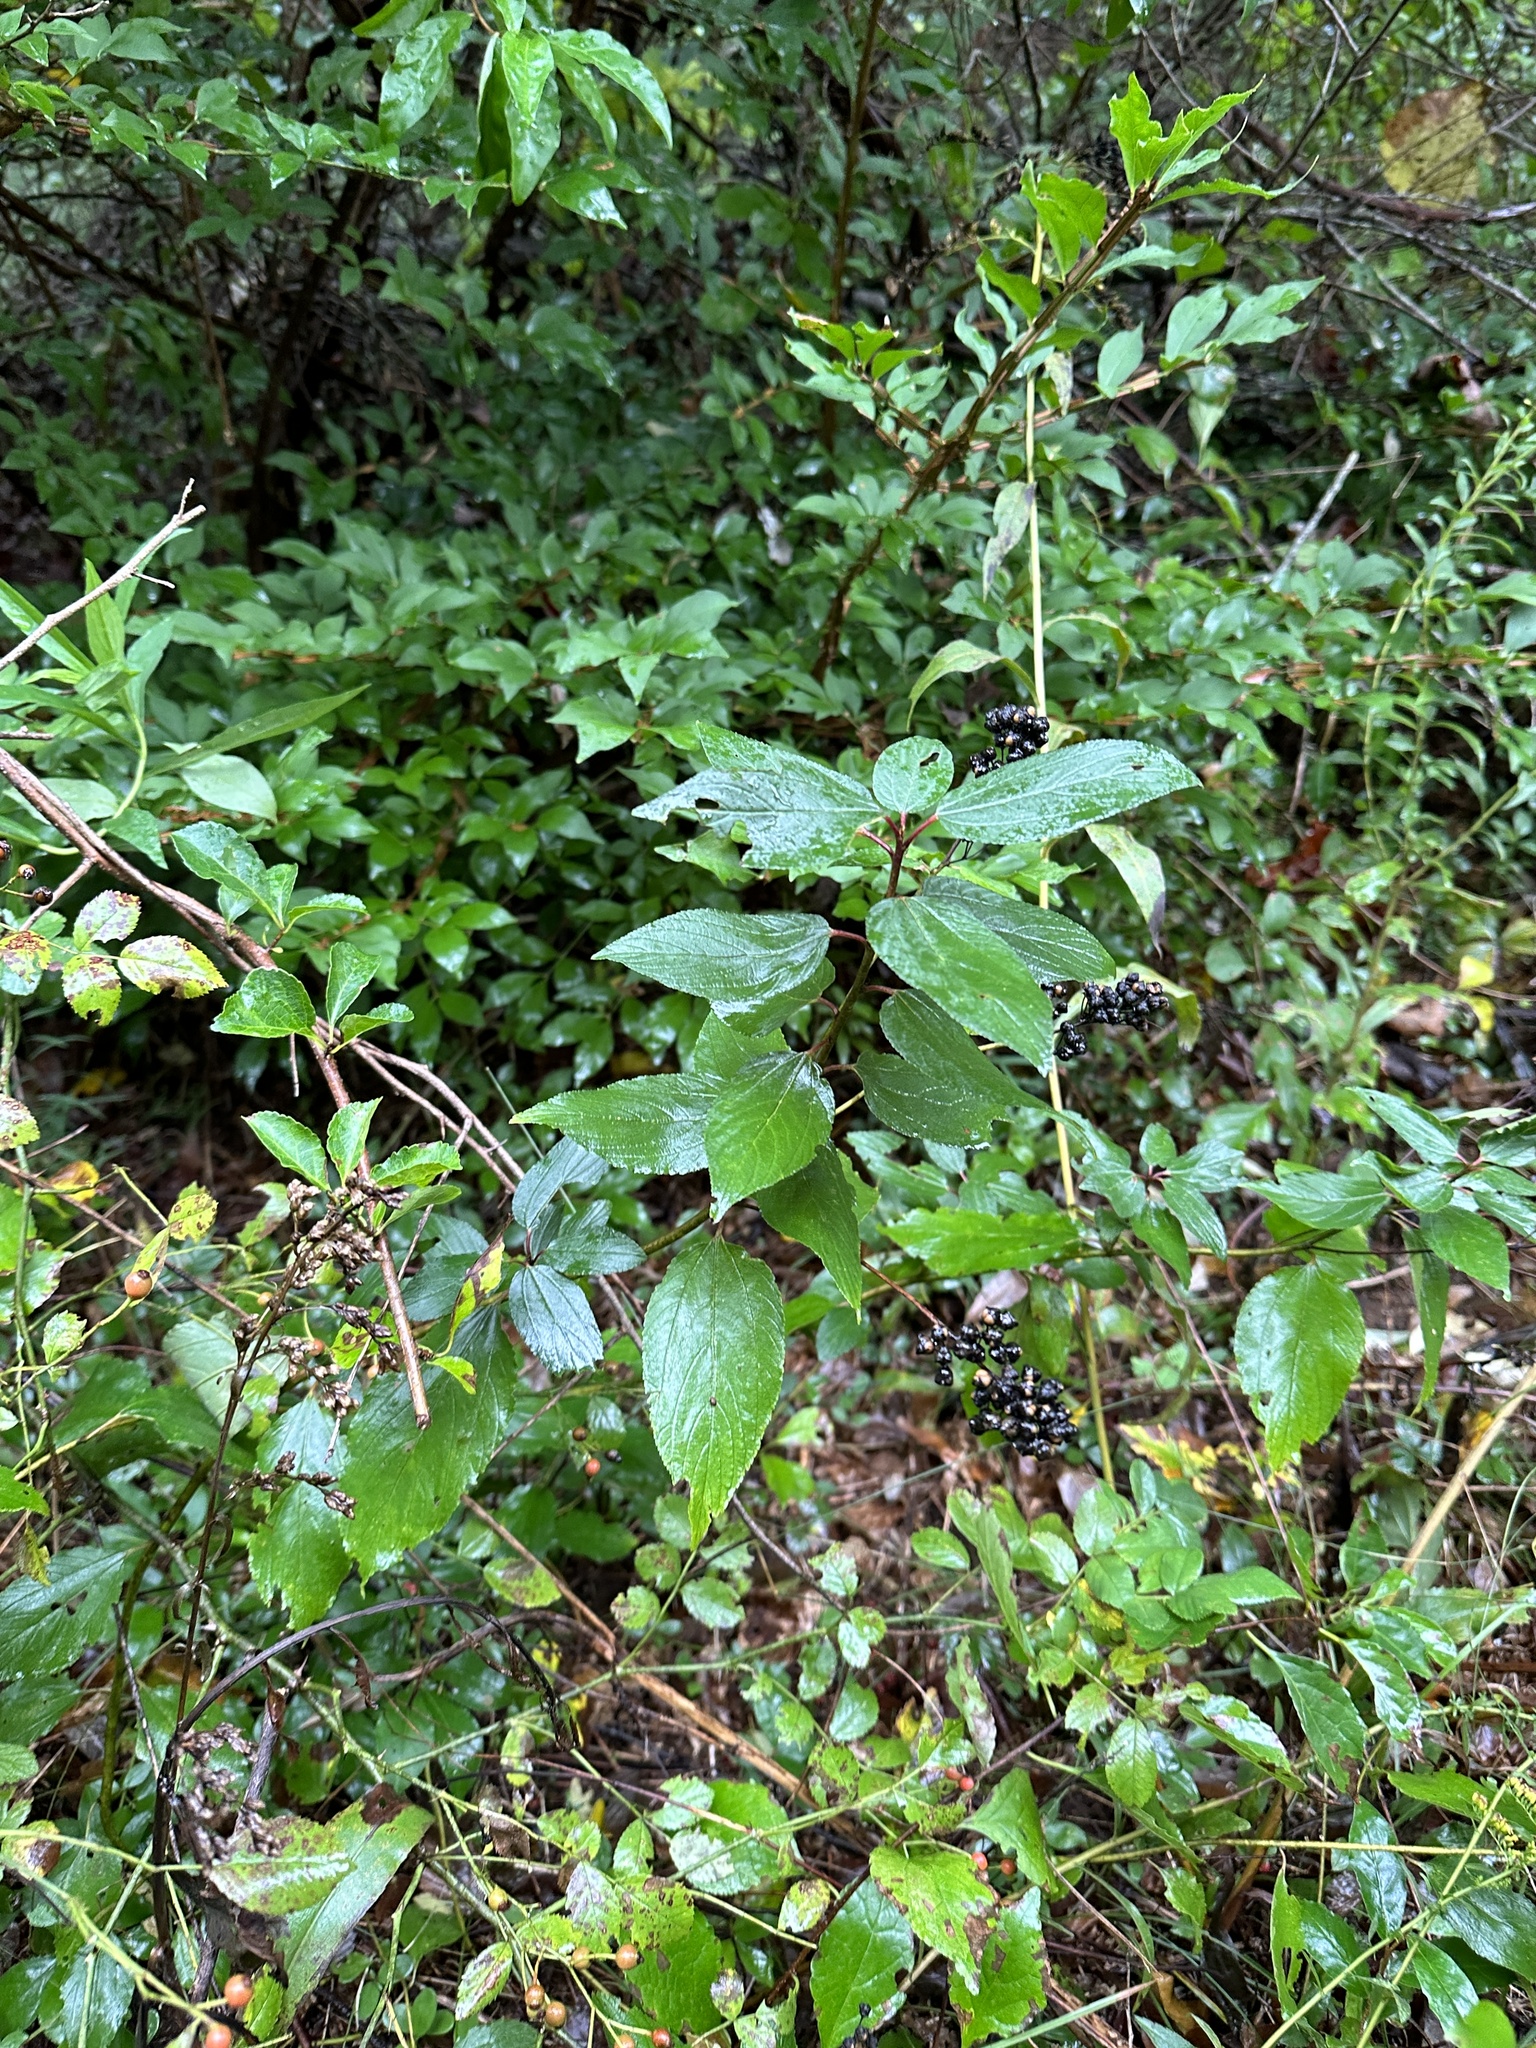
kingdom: Plantae
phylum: Tracheophyta
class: Magnoliopsida
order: Rosales
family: Rhamnaceae
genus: Ceanothus
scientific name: Ceanothus americanus
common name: Redroot
